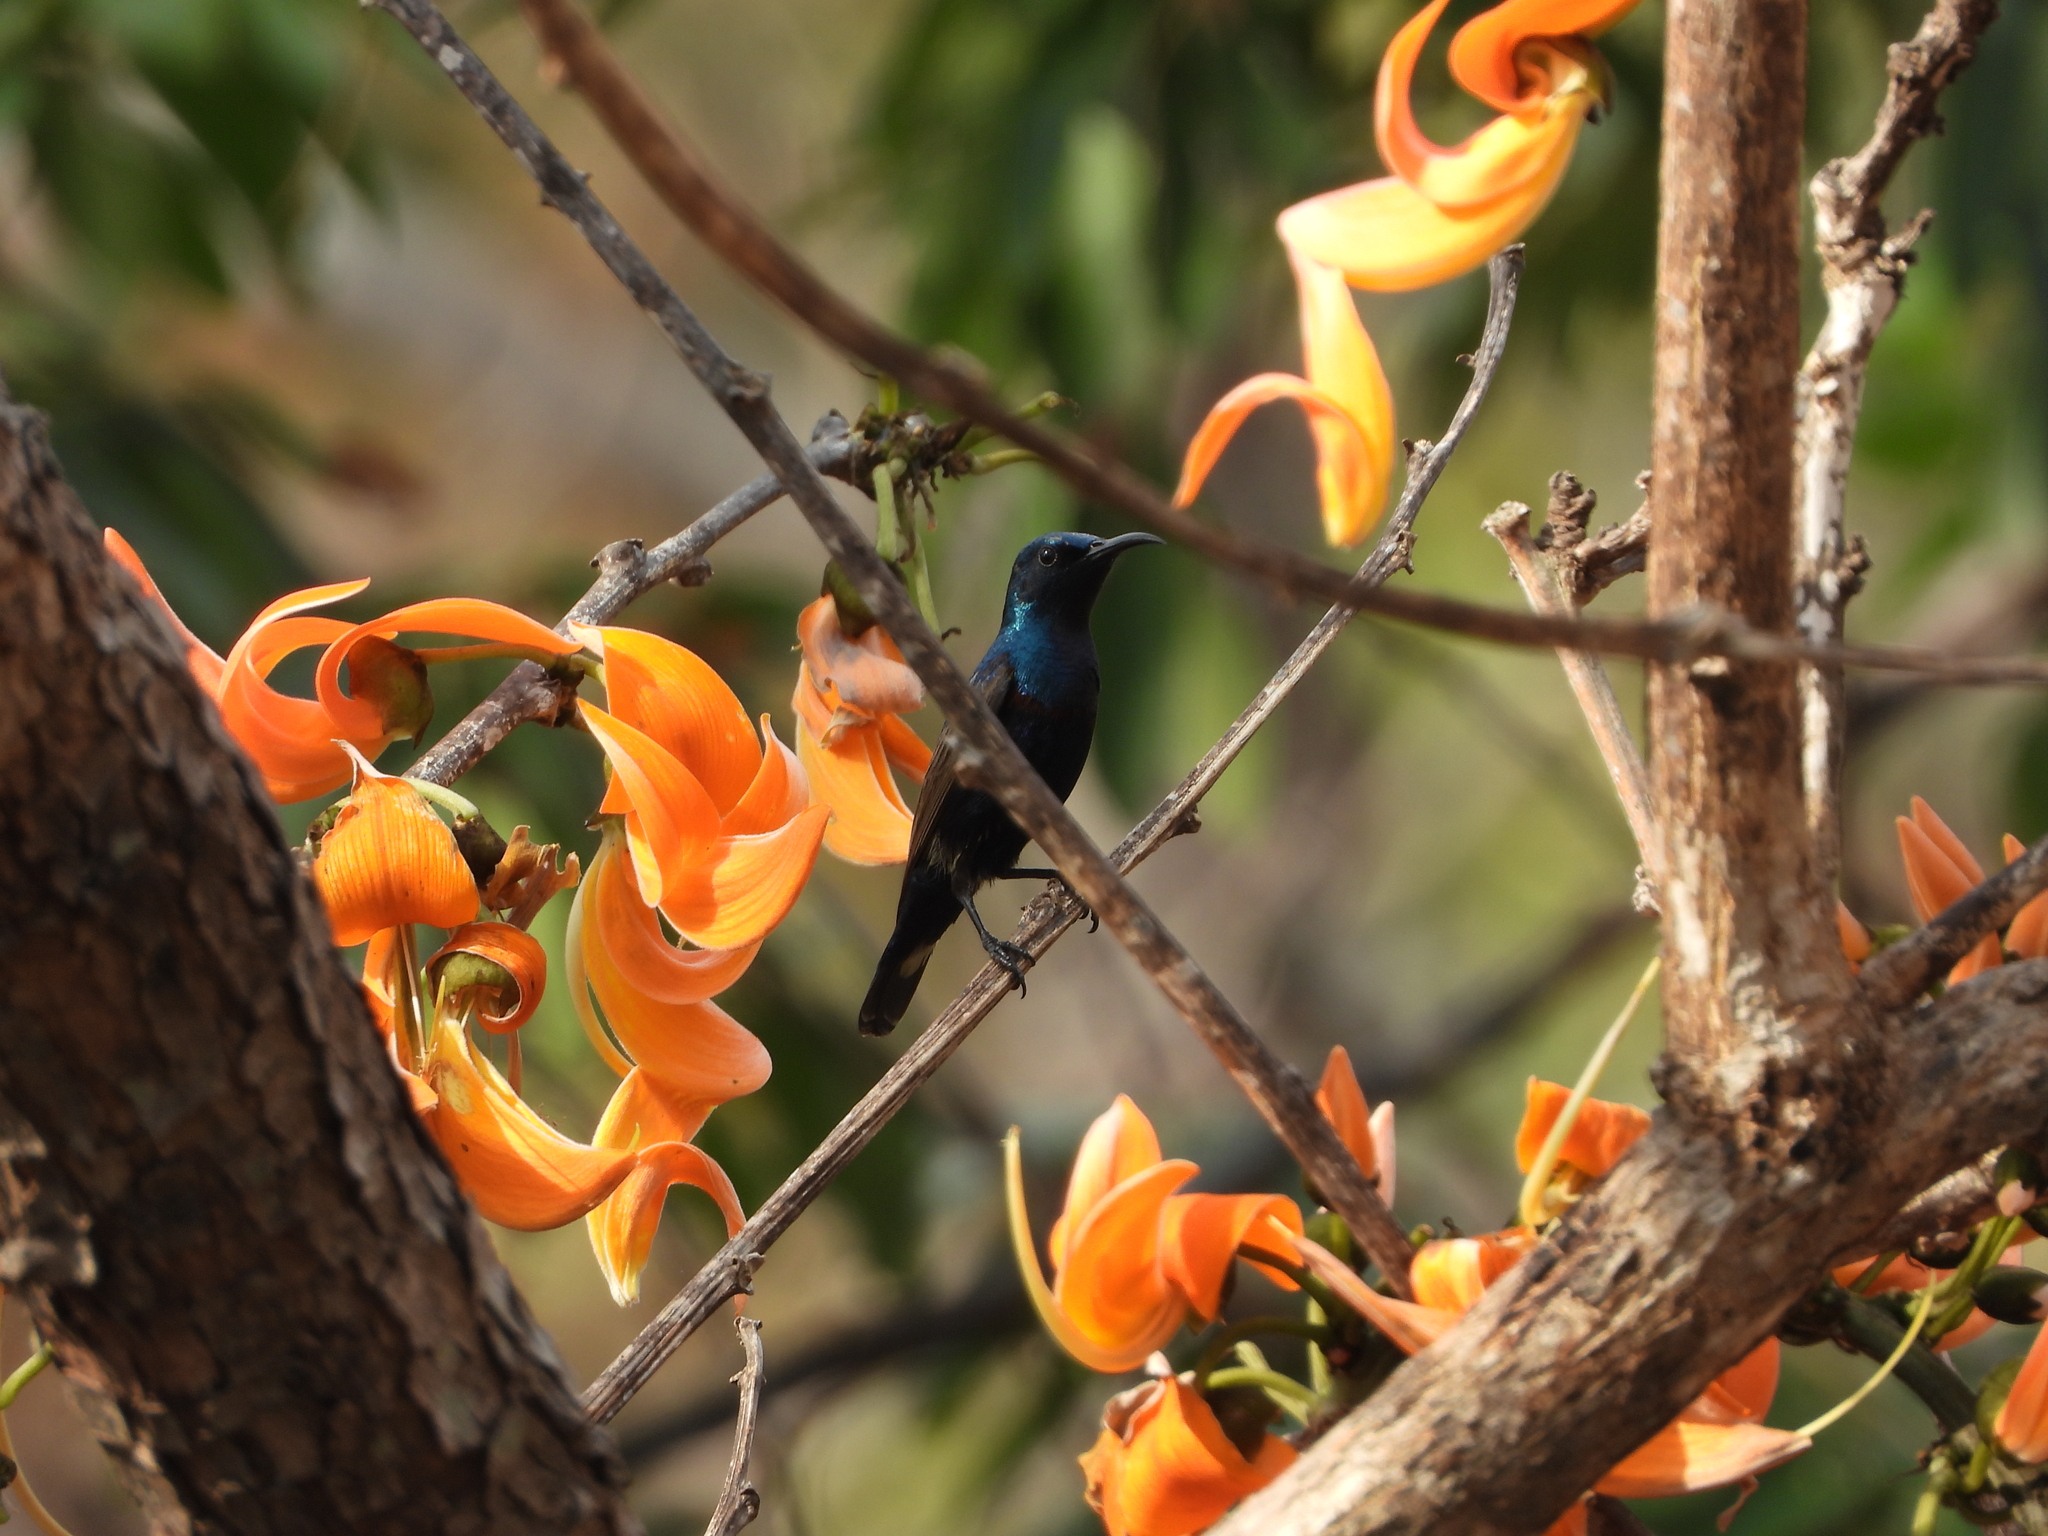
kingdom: Animalia
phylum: Chordata
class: Aves
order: Passeriformes
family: Nectariniidae
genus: Cinnyris
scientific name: Cinnyris asiaticus
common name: Purple sunbird
